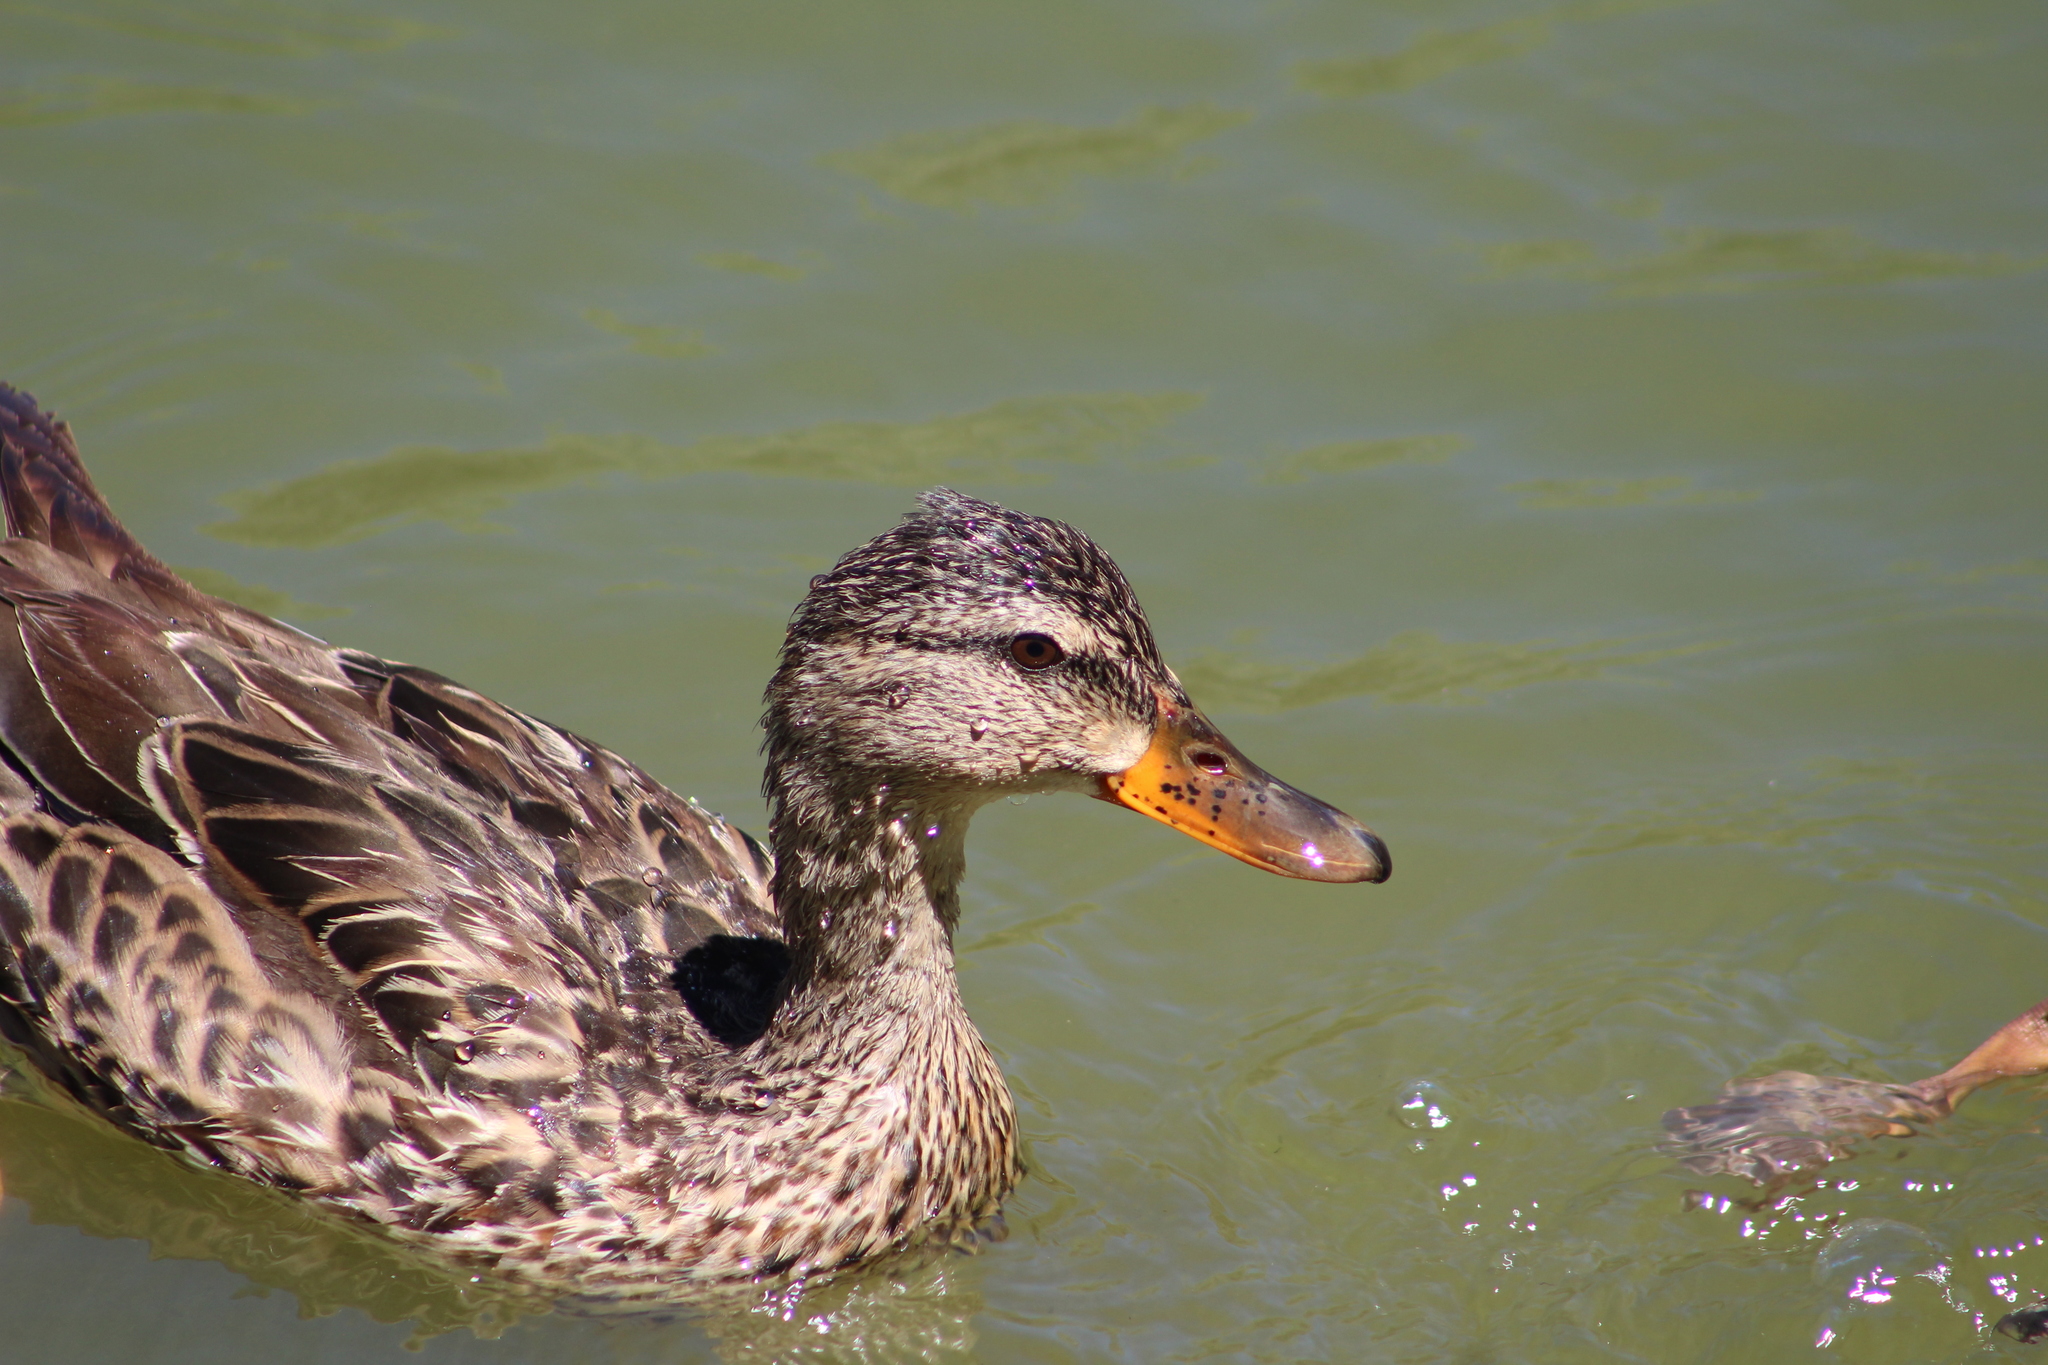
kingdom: Animalia
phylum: Chordata
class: Aves
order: Anseriformes
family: Anatidae
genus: Anas
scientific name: Anas platyrhynchos
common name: Mallard
